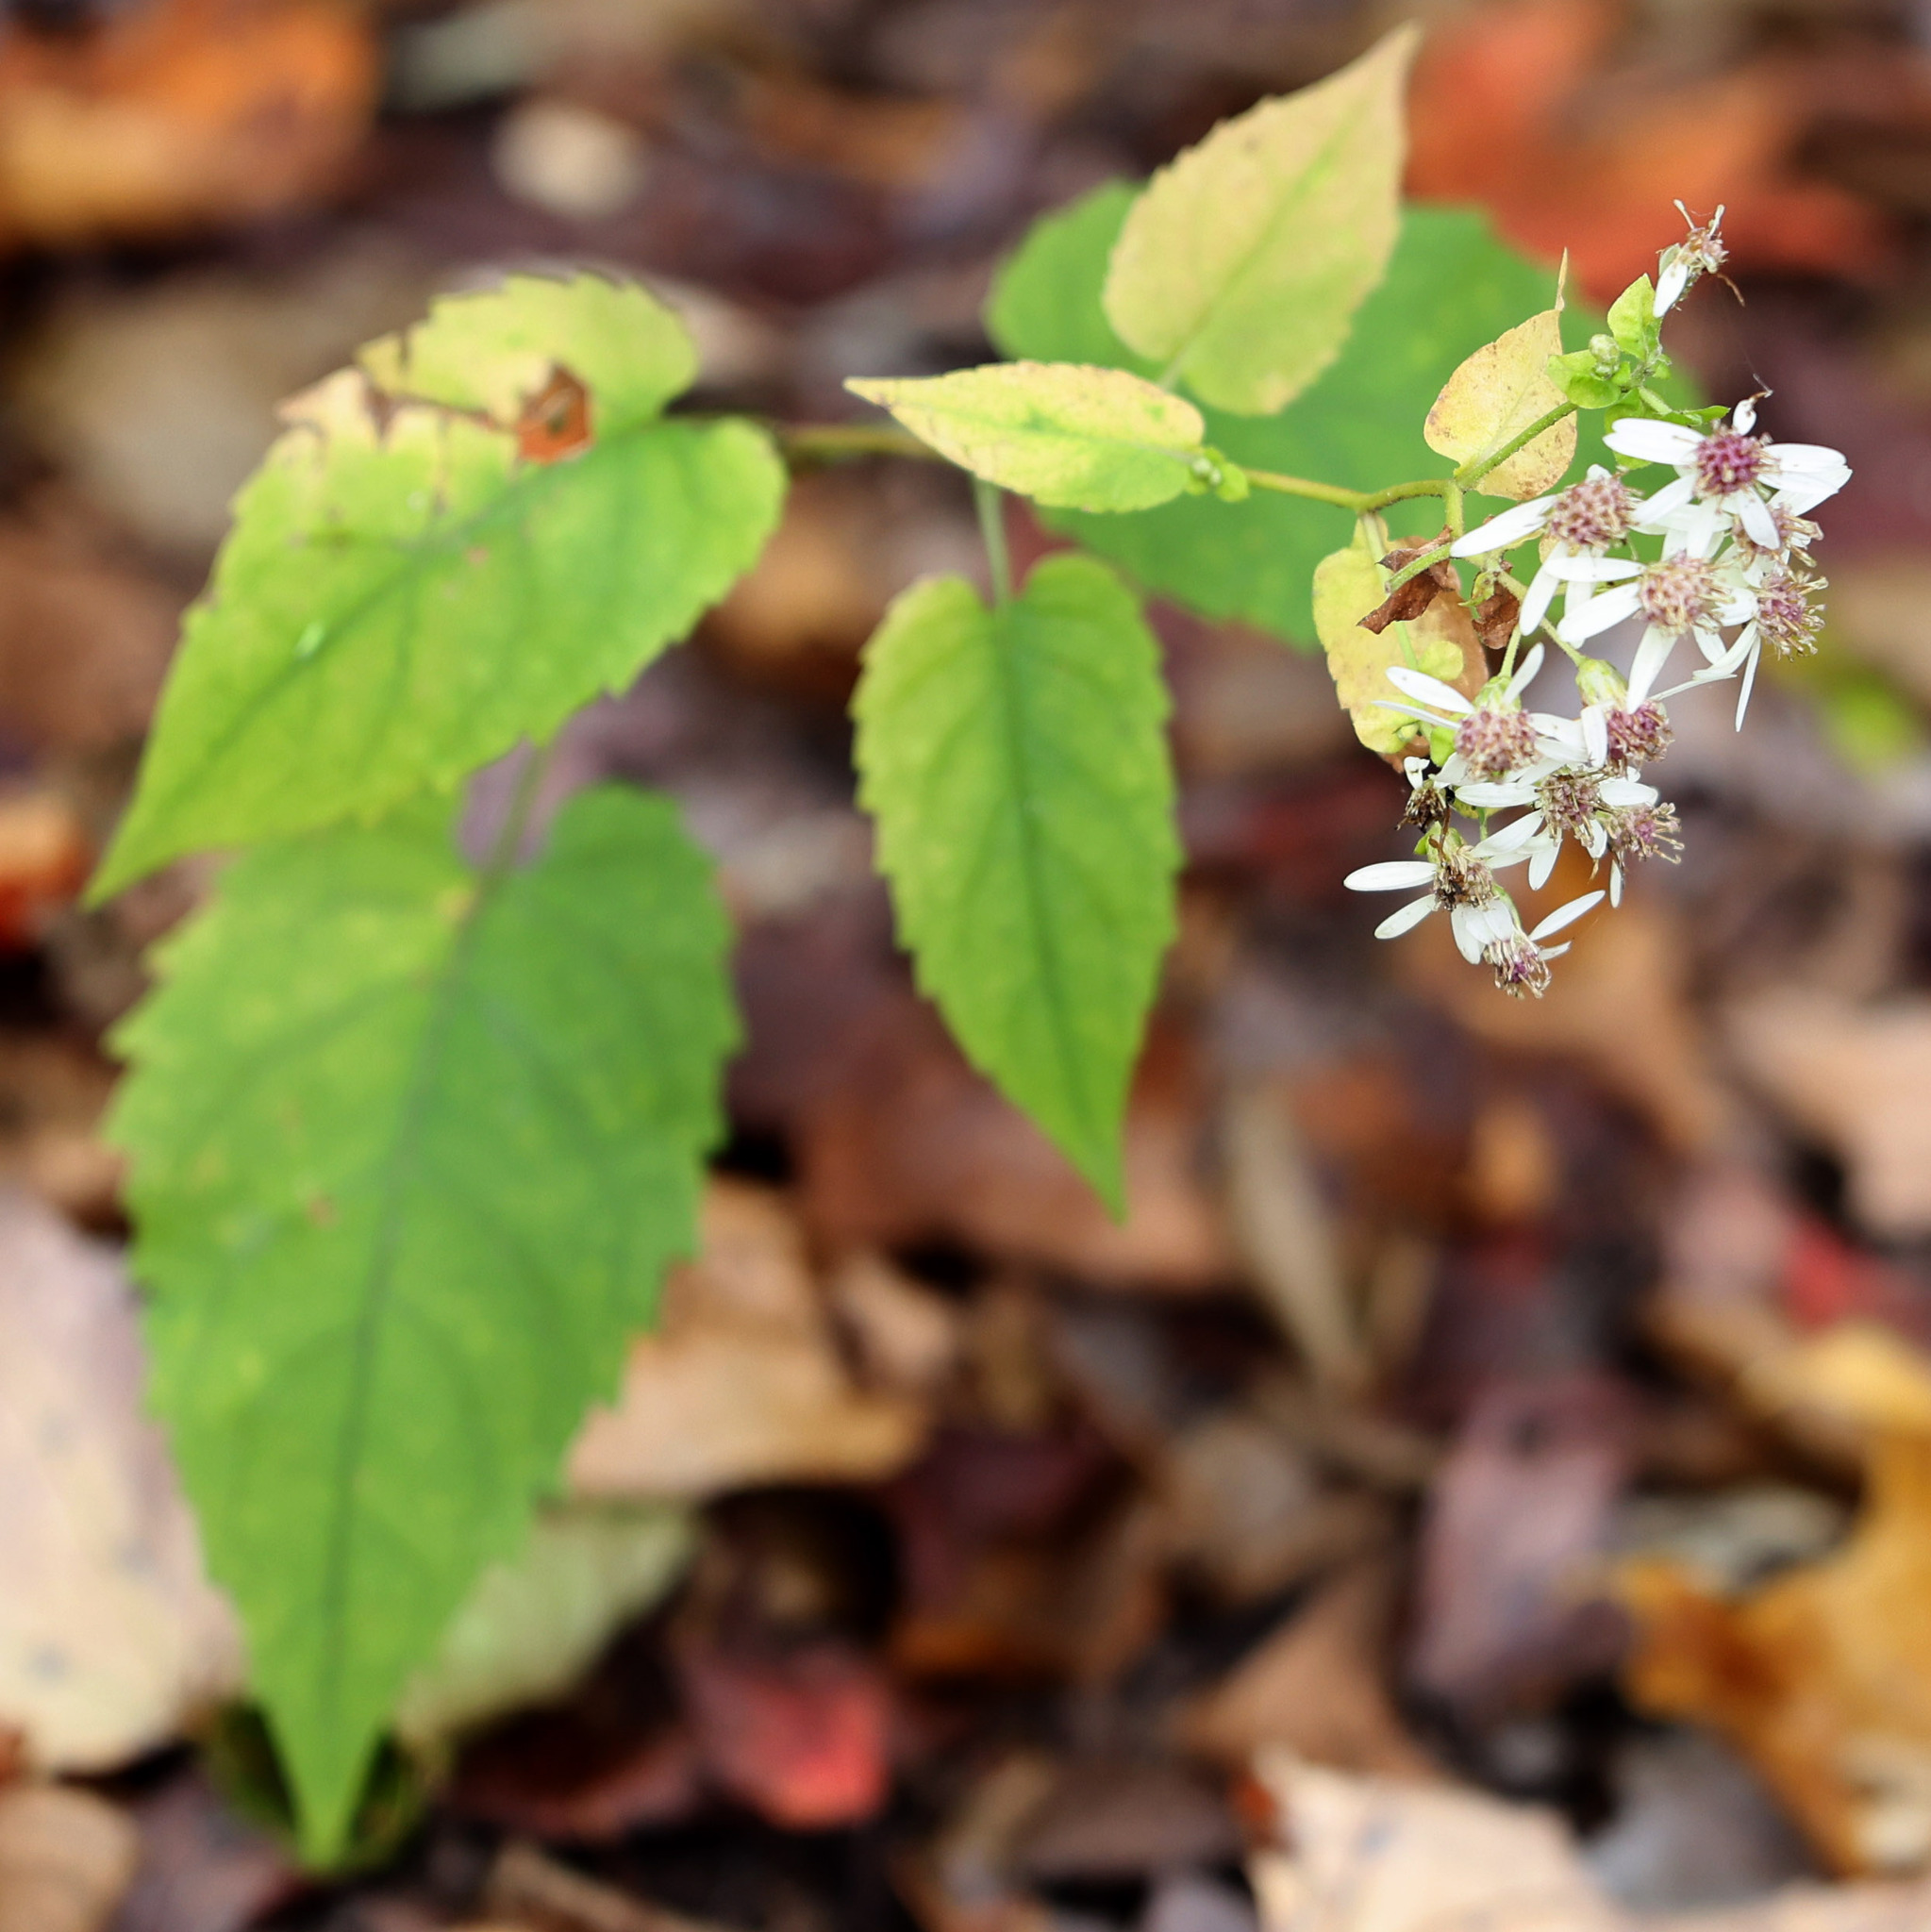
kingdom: Plantae
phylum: Tracheophyta
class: Magnoliopsida
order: Asterales
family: Asteraceae
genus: Eurybia
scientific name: Eurybia divaricata
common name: White wood aster
